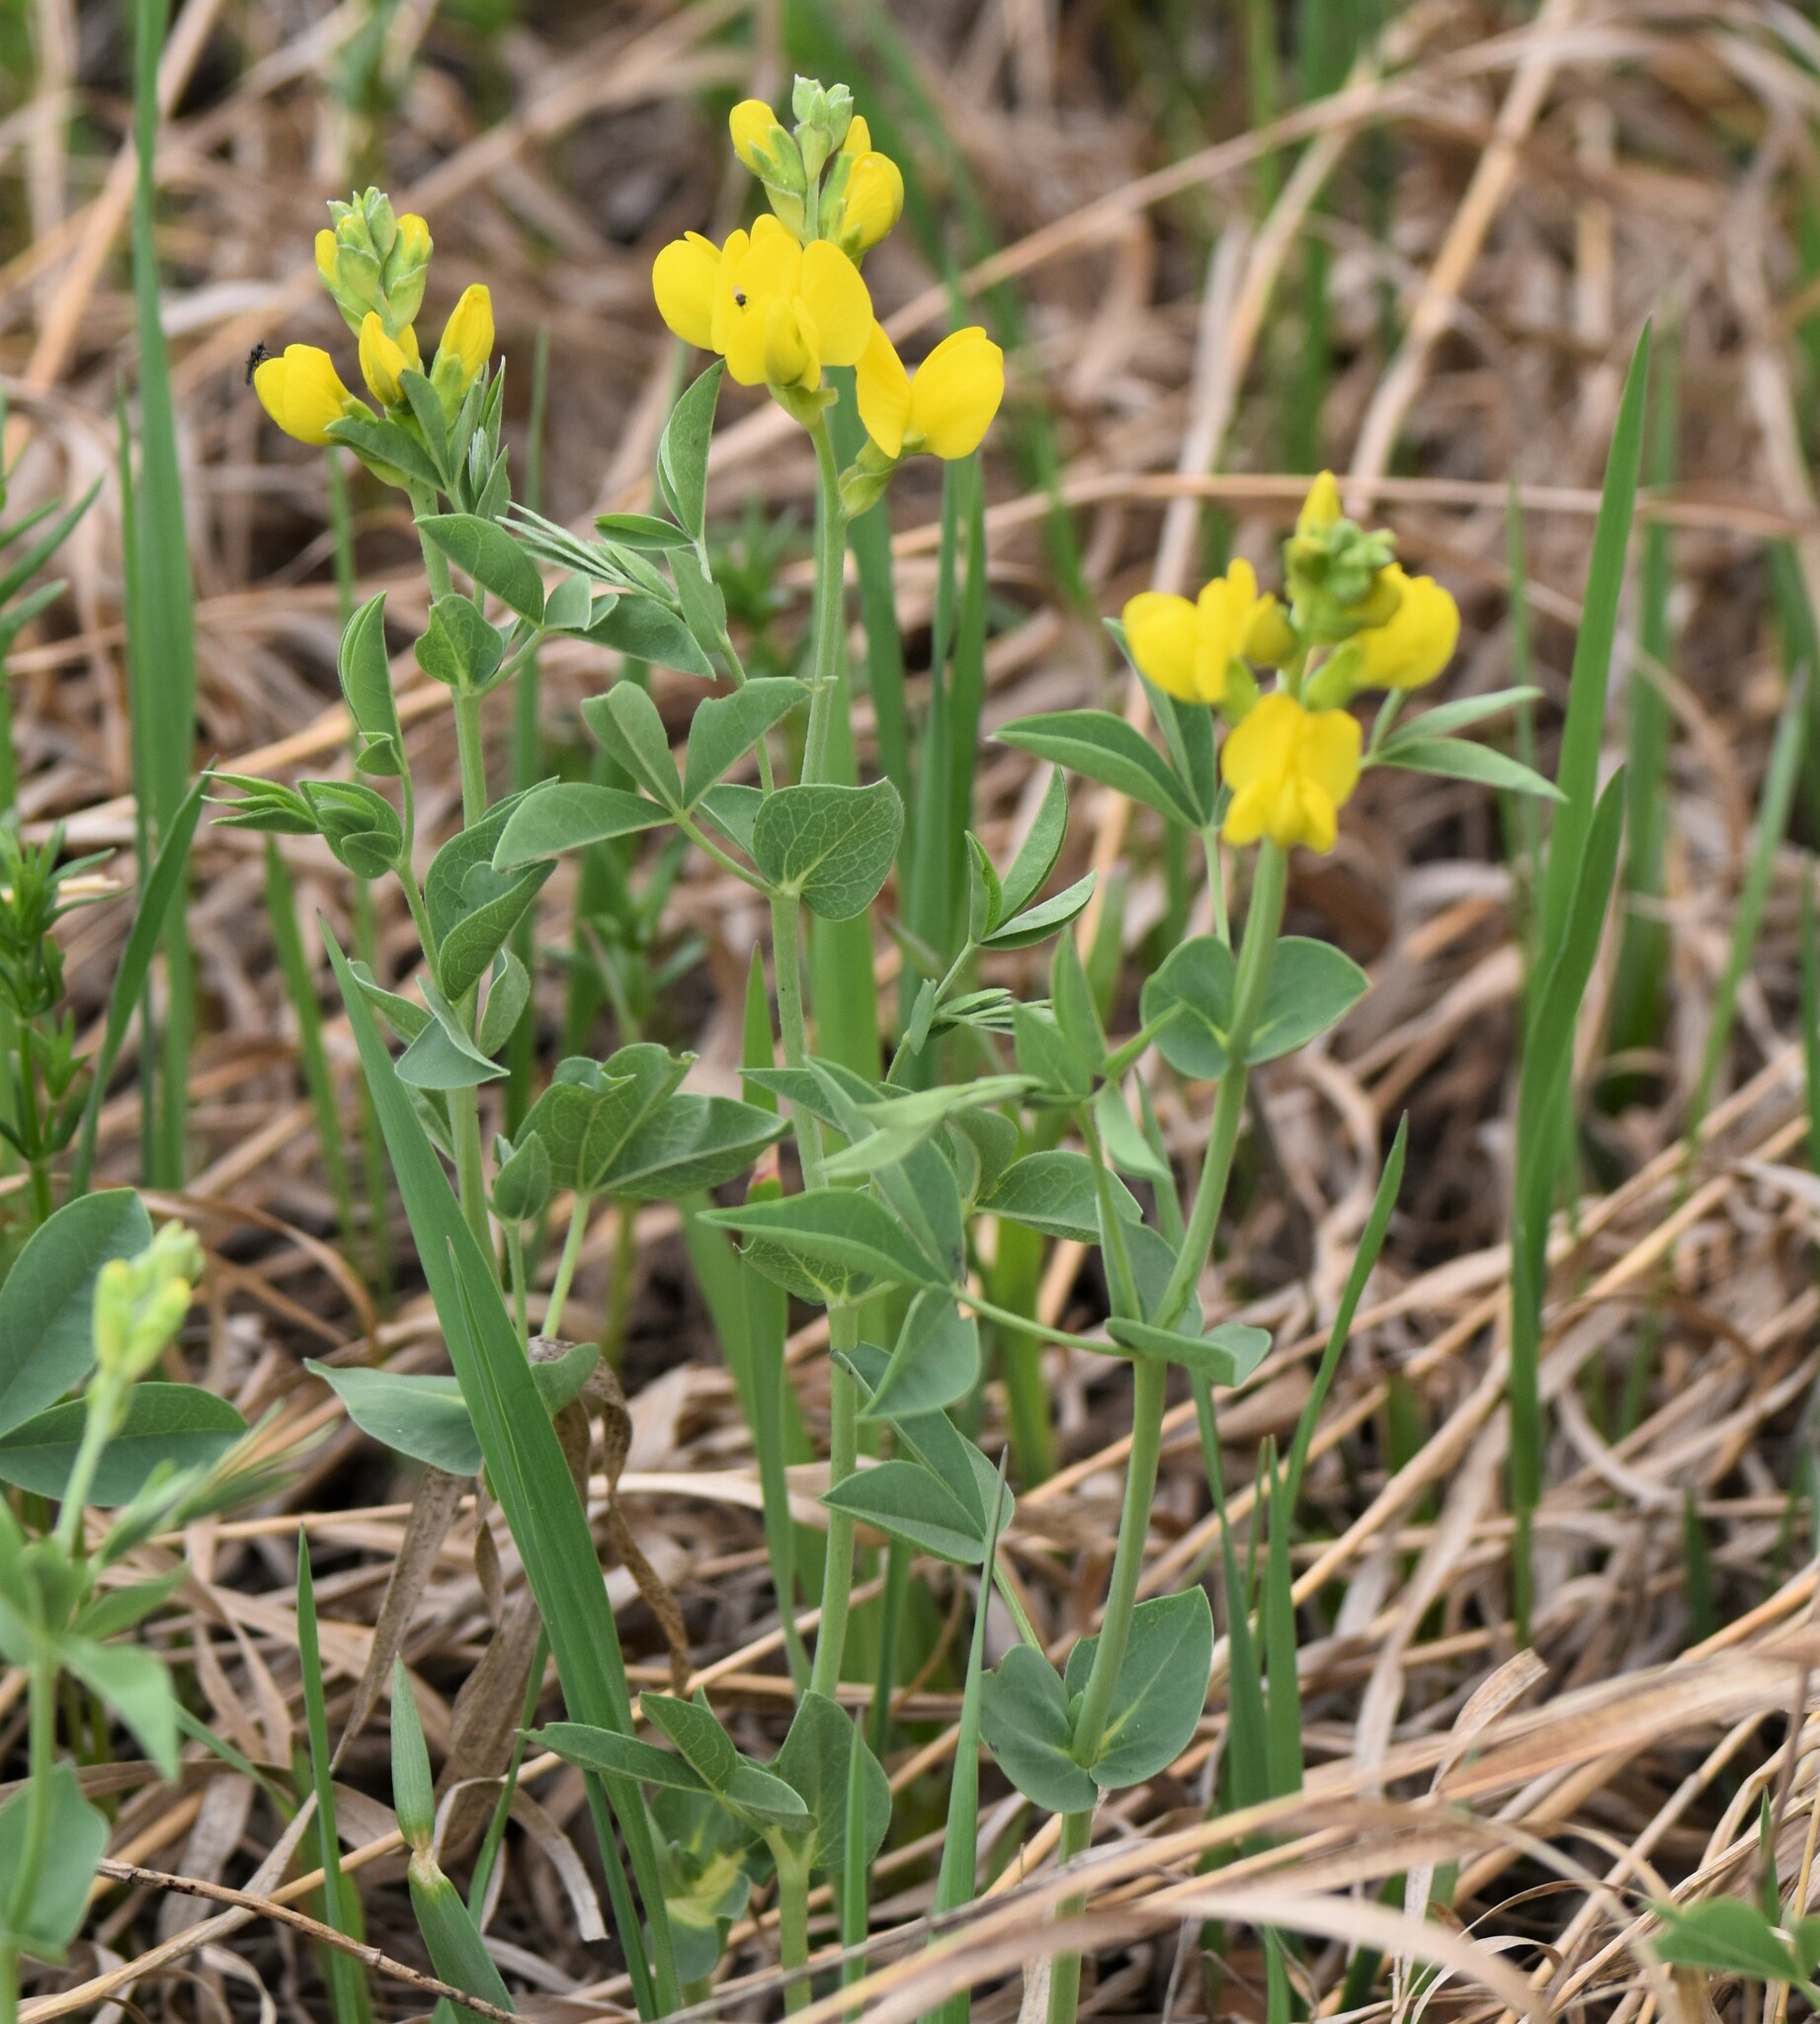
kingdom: Plantae
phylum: Tracheophyta
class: Magnoliopsida
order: Fabales
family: Fabaceae
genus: Thermopsis
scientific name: Thermopsis rhombifolia
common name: Circle-pod-pea
